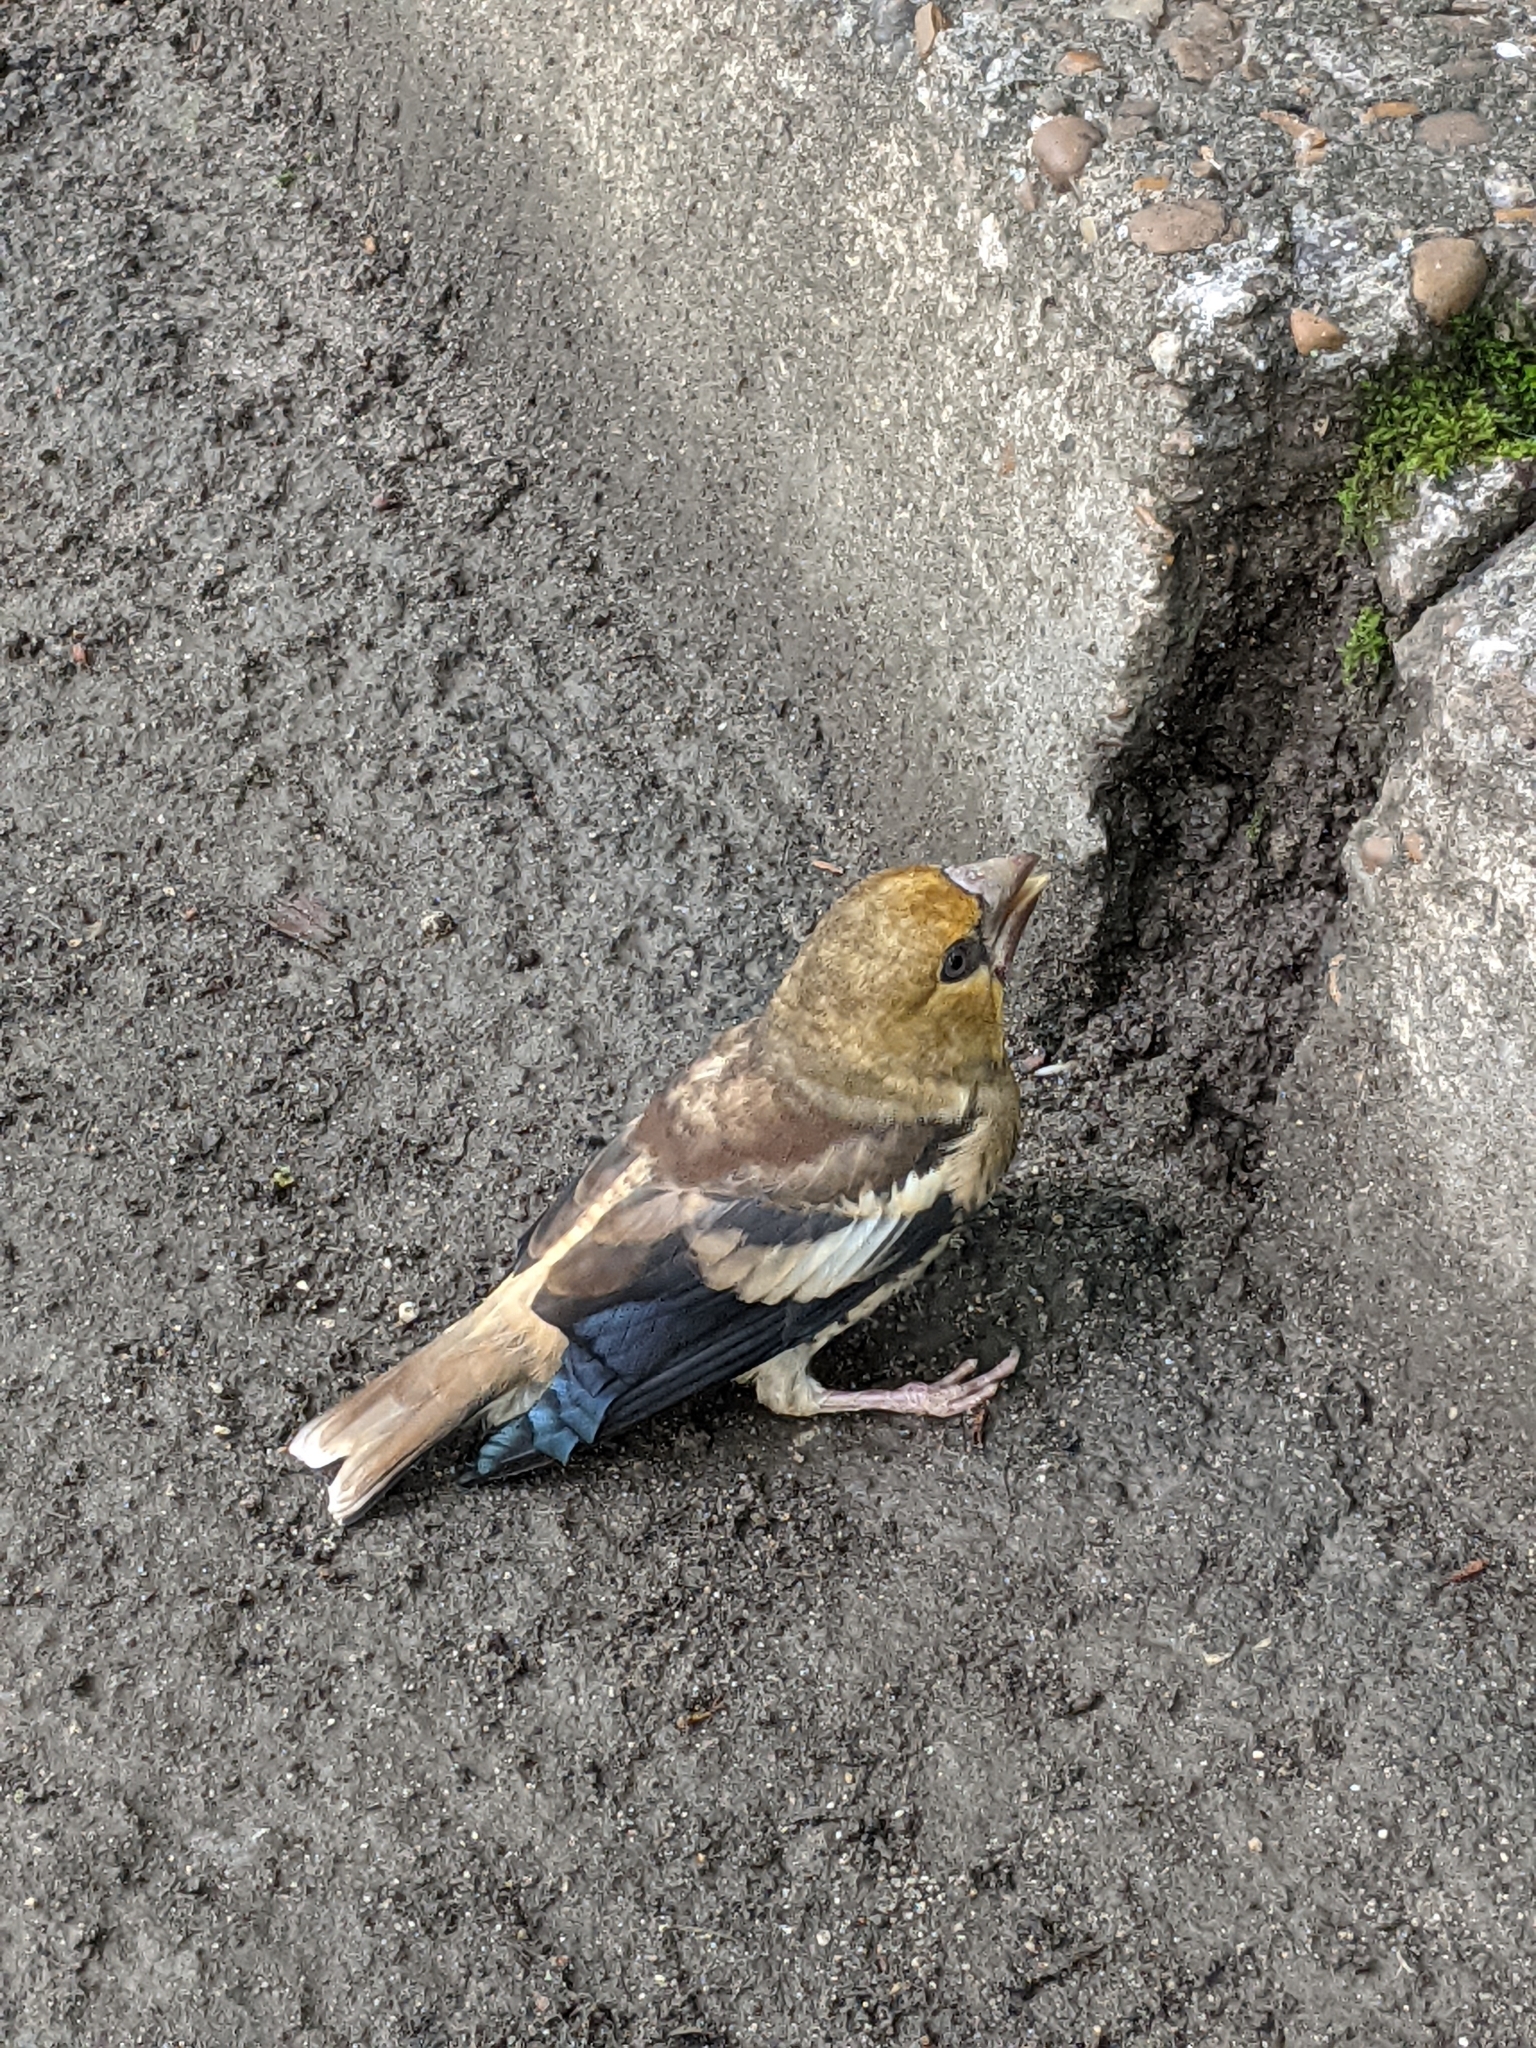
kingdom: Animalia
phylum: Chordata
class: Aves
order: Passeriformes
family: Fringillidae
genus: Coccothraustes
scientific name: Coccothraustes coccothraustes
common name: Hawfinch
